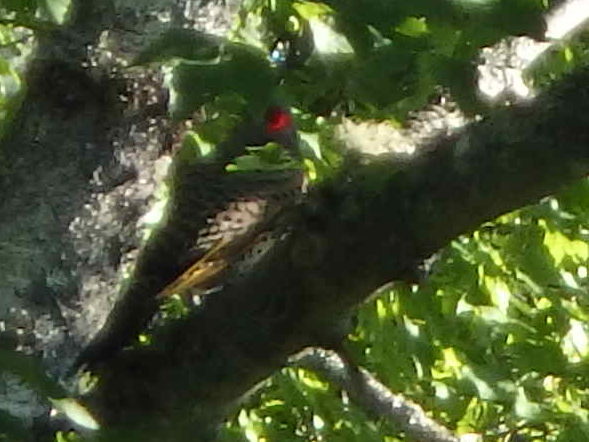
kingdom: Animalia
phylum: Chordata
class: Aves
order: Piciformes
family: Picidae
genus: Colaptes
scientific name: Colaptes auratus
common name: Northern flicker
